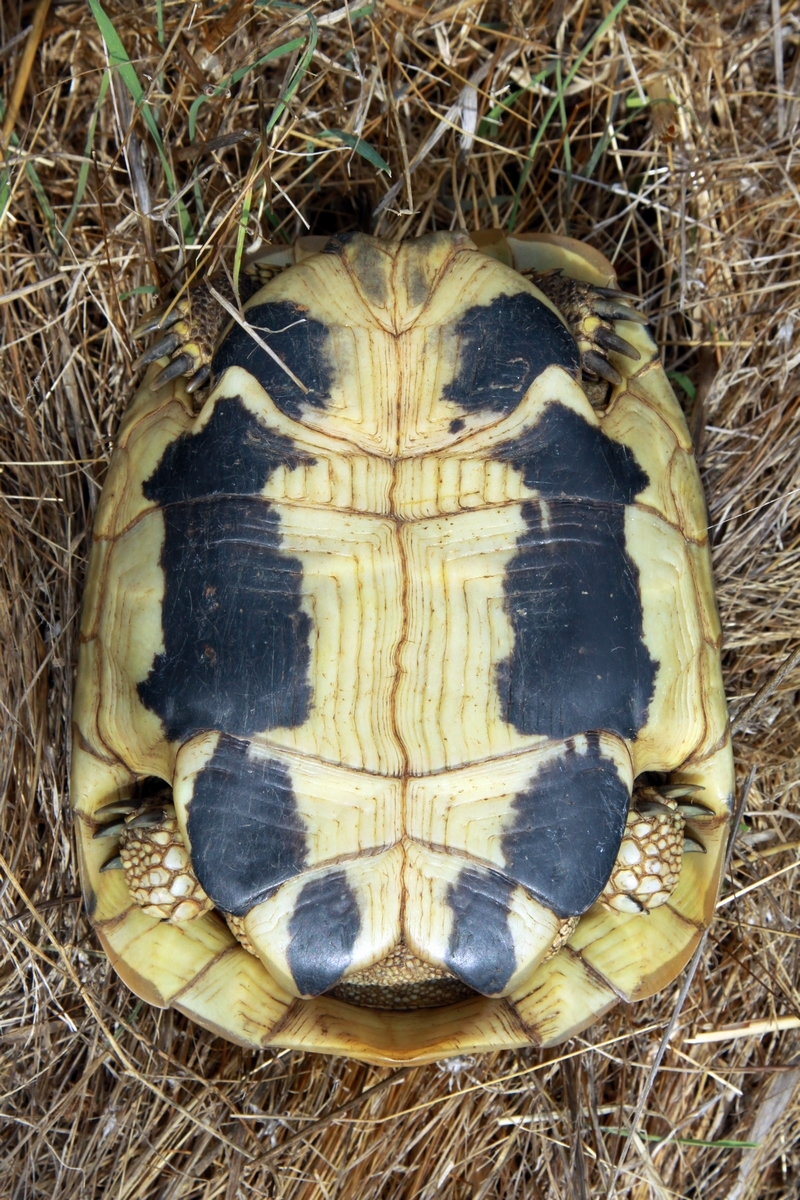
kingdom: Animalia
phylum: Chordata
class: Testudines
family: Testudinidae
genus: Testudo
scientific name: Testudo hermanni
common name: Hermann's tortoise
